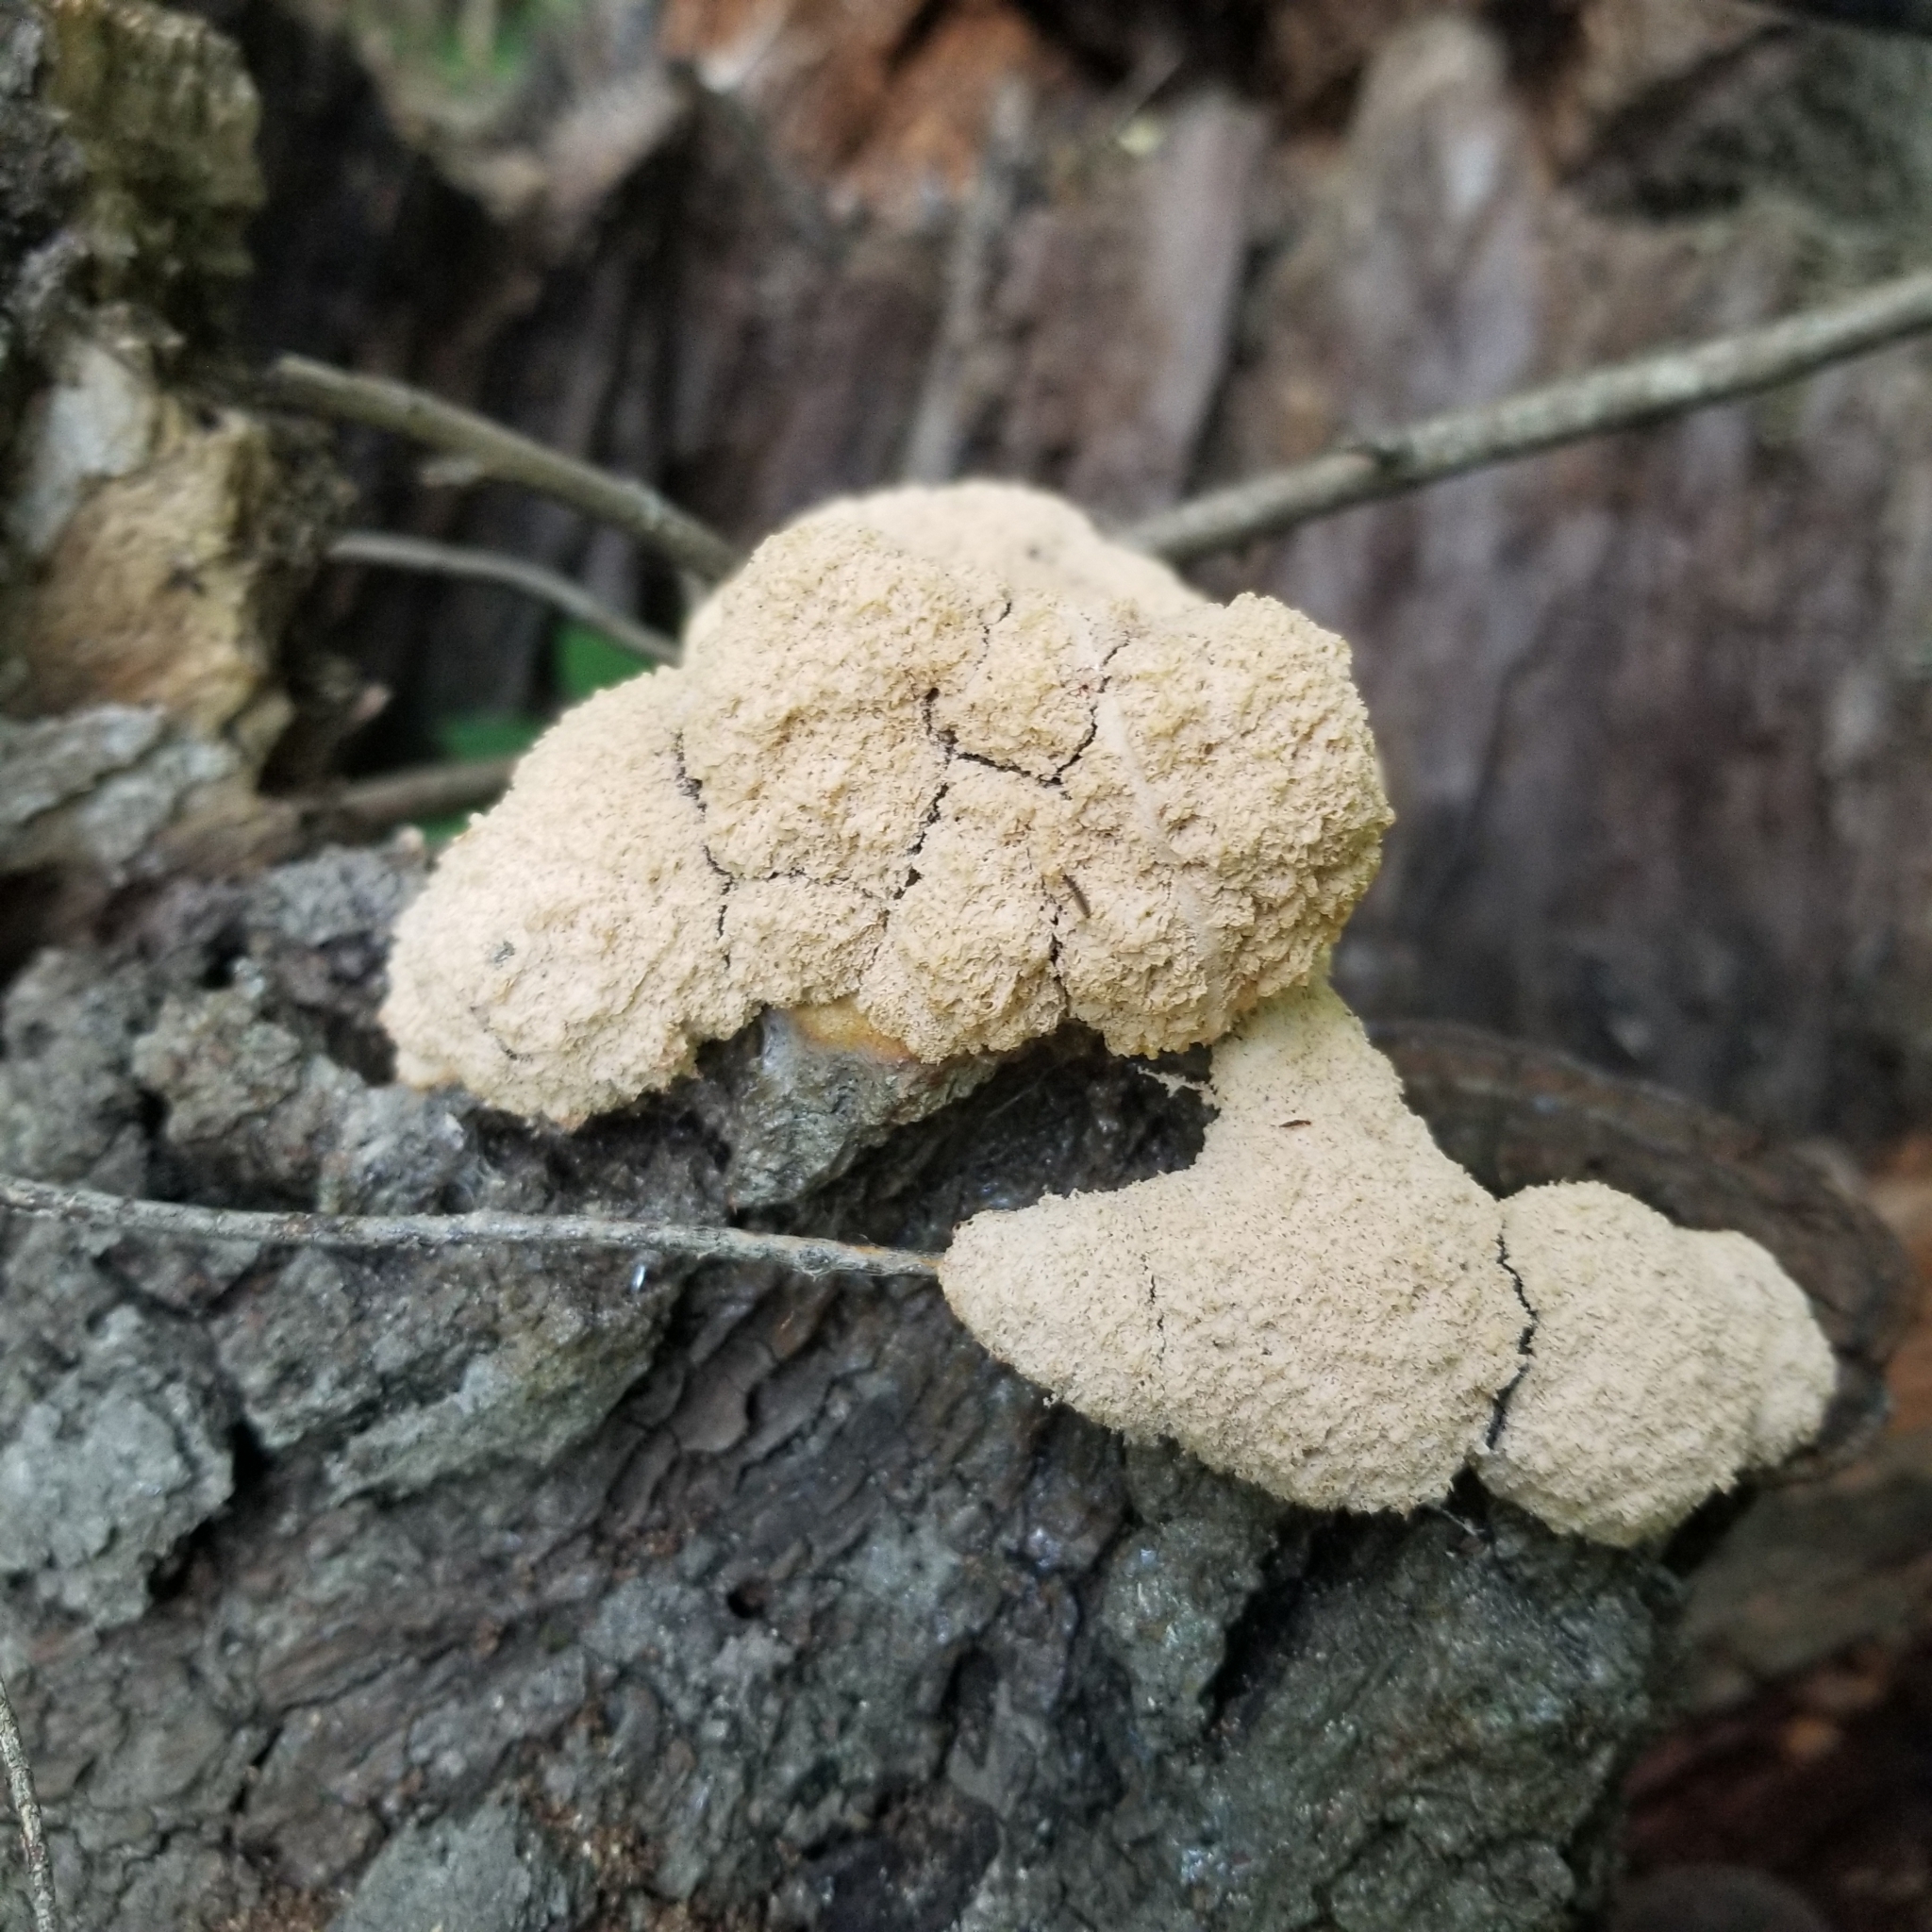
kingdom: Protozoa
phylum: Mycetozoa
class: Myxomycetes
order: Physarales
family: Physaraceae
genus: Fuligo
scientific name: Fuligo septica
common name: Dog vomit slime mold
